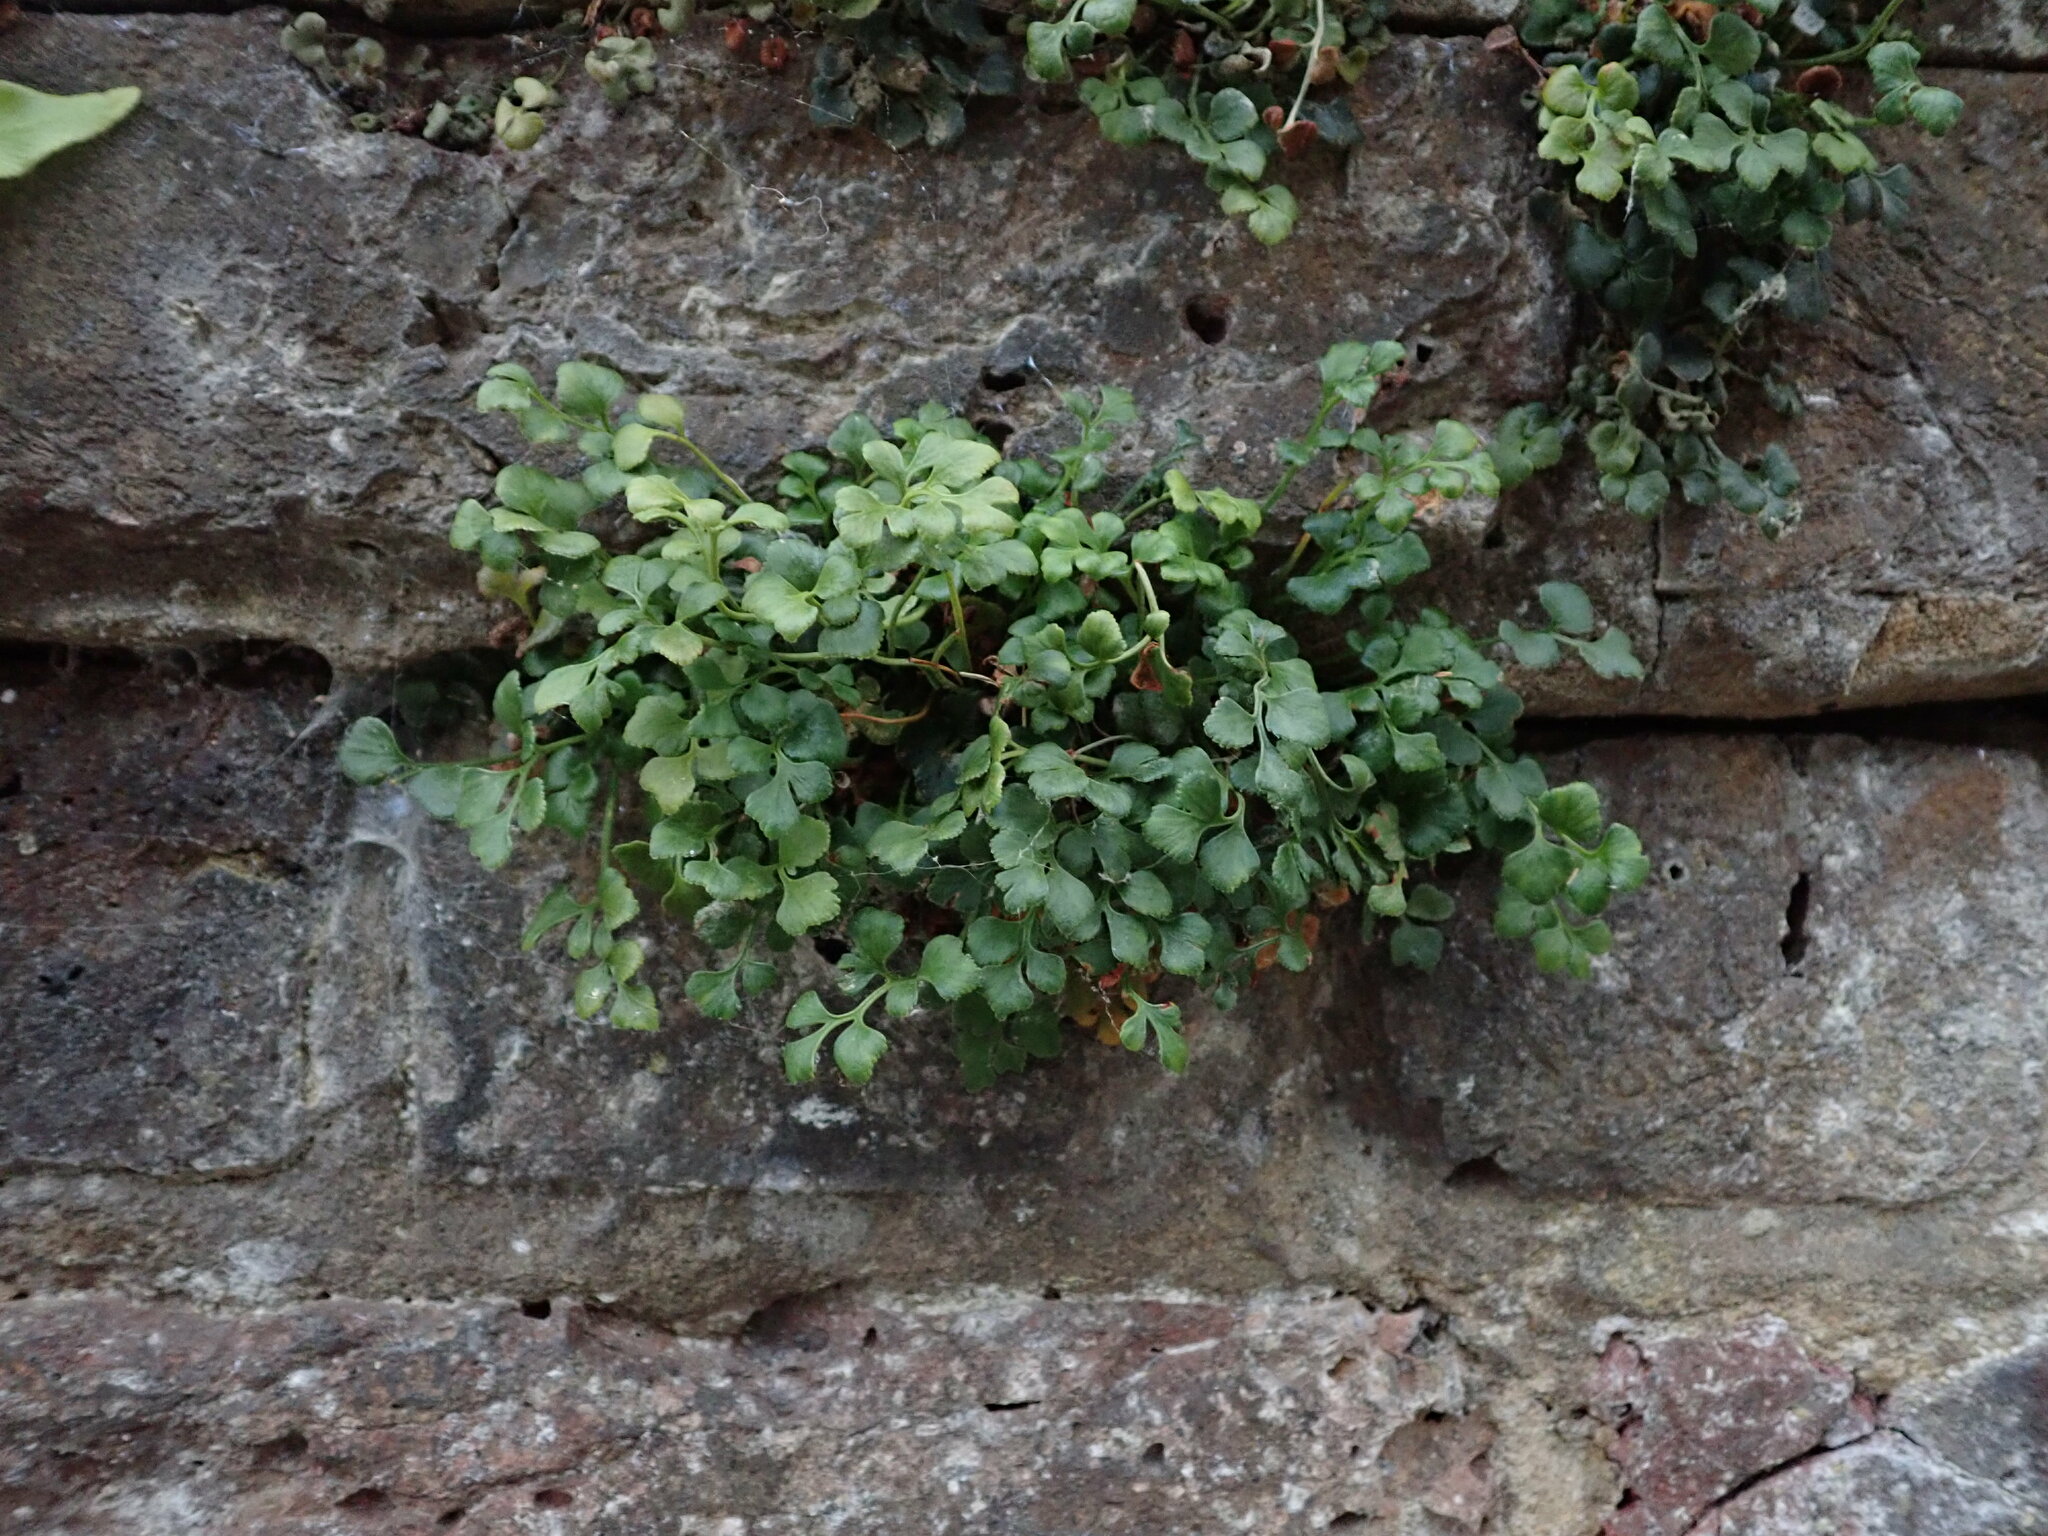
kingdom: Plantae
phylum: Tracheophyta
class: Polypodiopsida
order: Polypodiales
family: Aspleniaceae
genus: Asplenium
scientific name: Asplenium ruta-muraria
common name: Wall-rue
